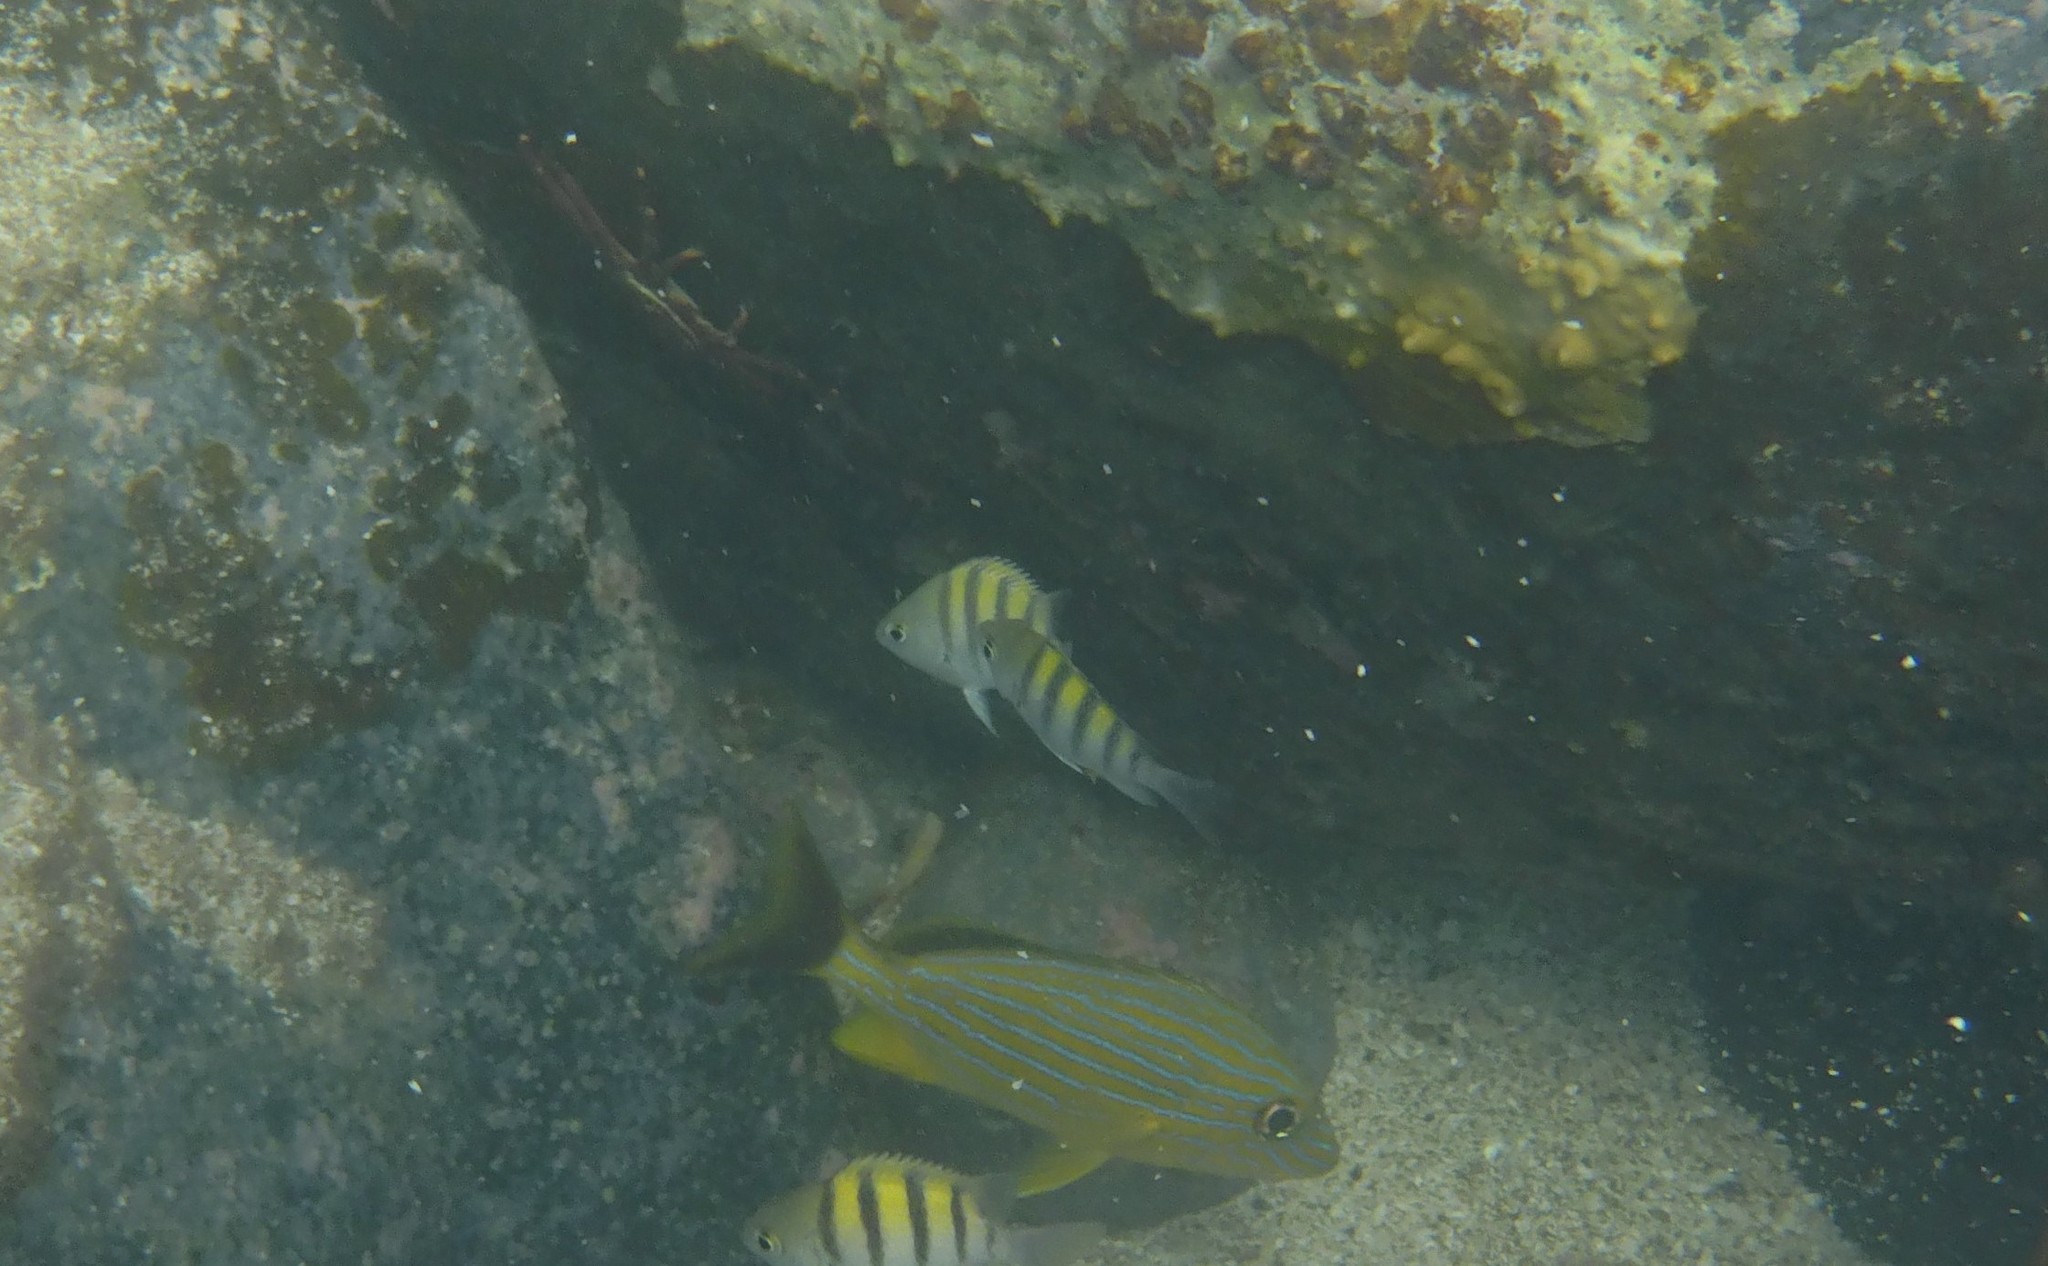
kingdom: Animalia
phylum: Chordata
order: Perciformes
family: Pomacentridae
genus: Abudefduf
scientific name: Abudefduf saxatilis
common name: Sergeant major
